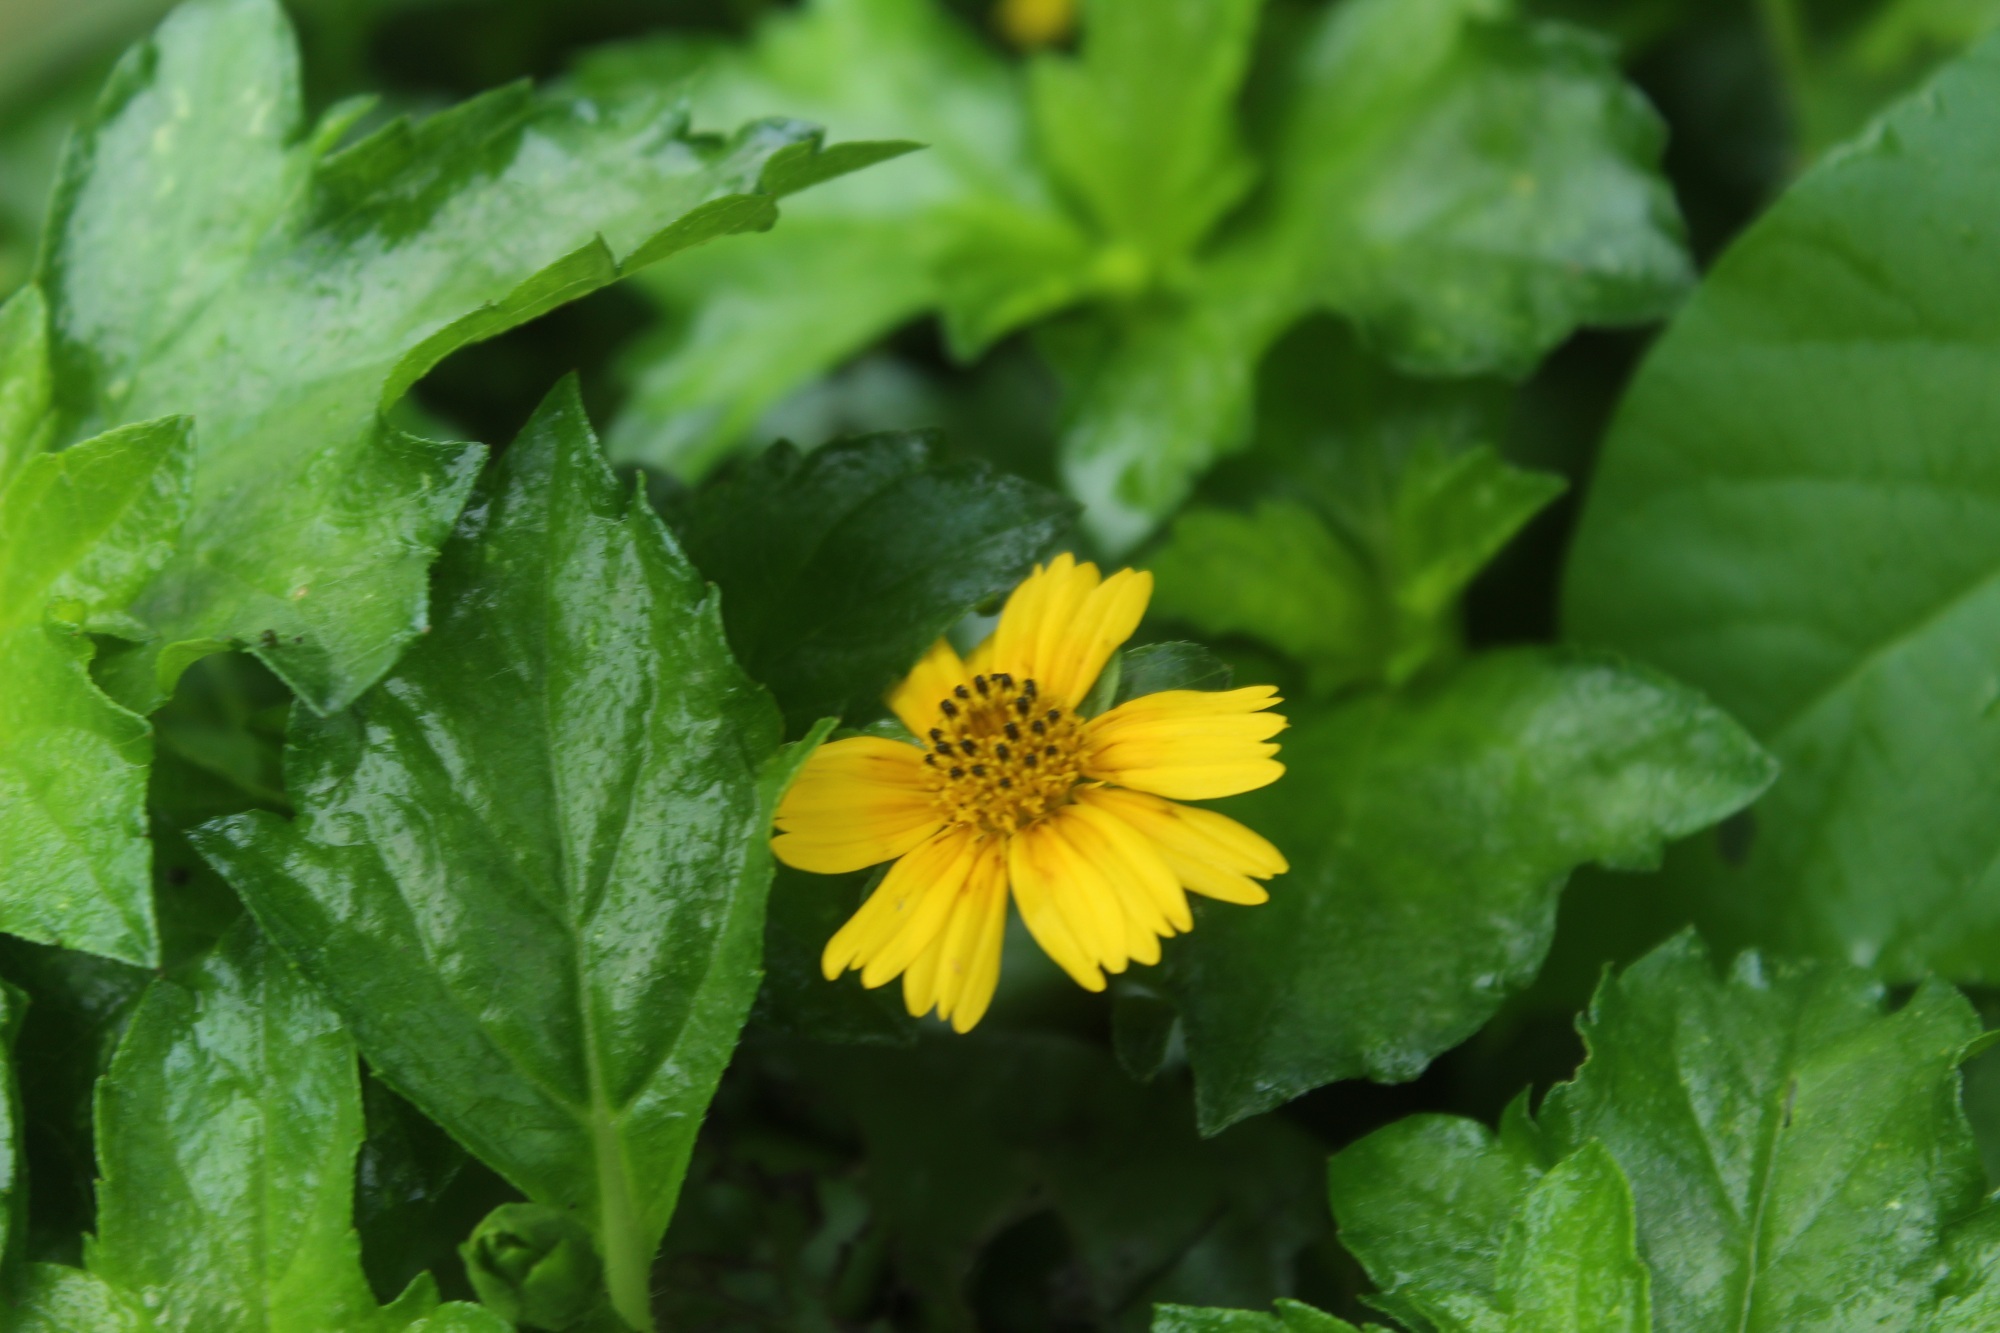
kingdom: Plantae
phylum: Tracheophyta
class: Magnoliopsida
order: Asterales
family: Asteraceae
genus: Sphagneticola
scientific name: Sphagneticola trilobata
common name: Bay biscayne creeping-oxeye
